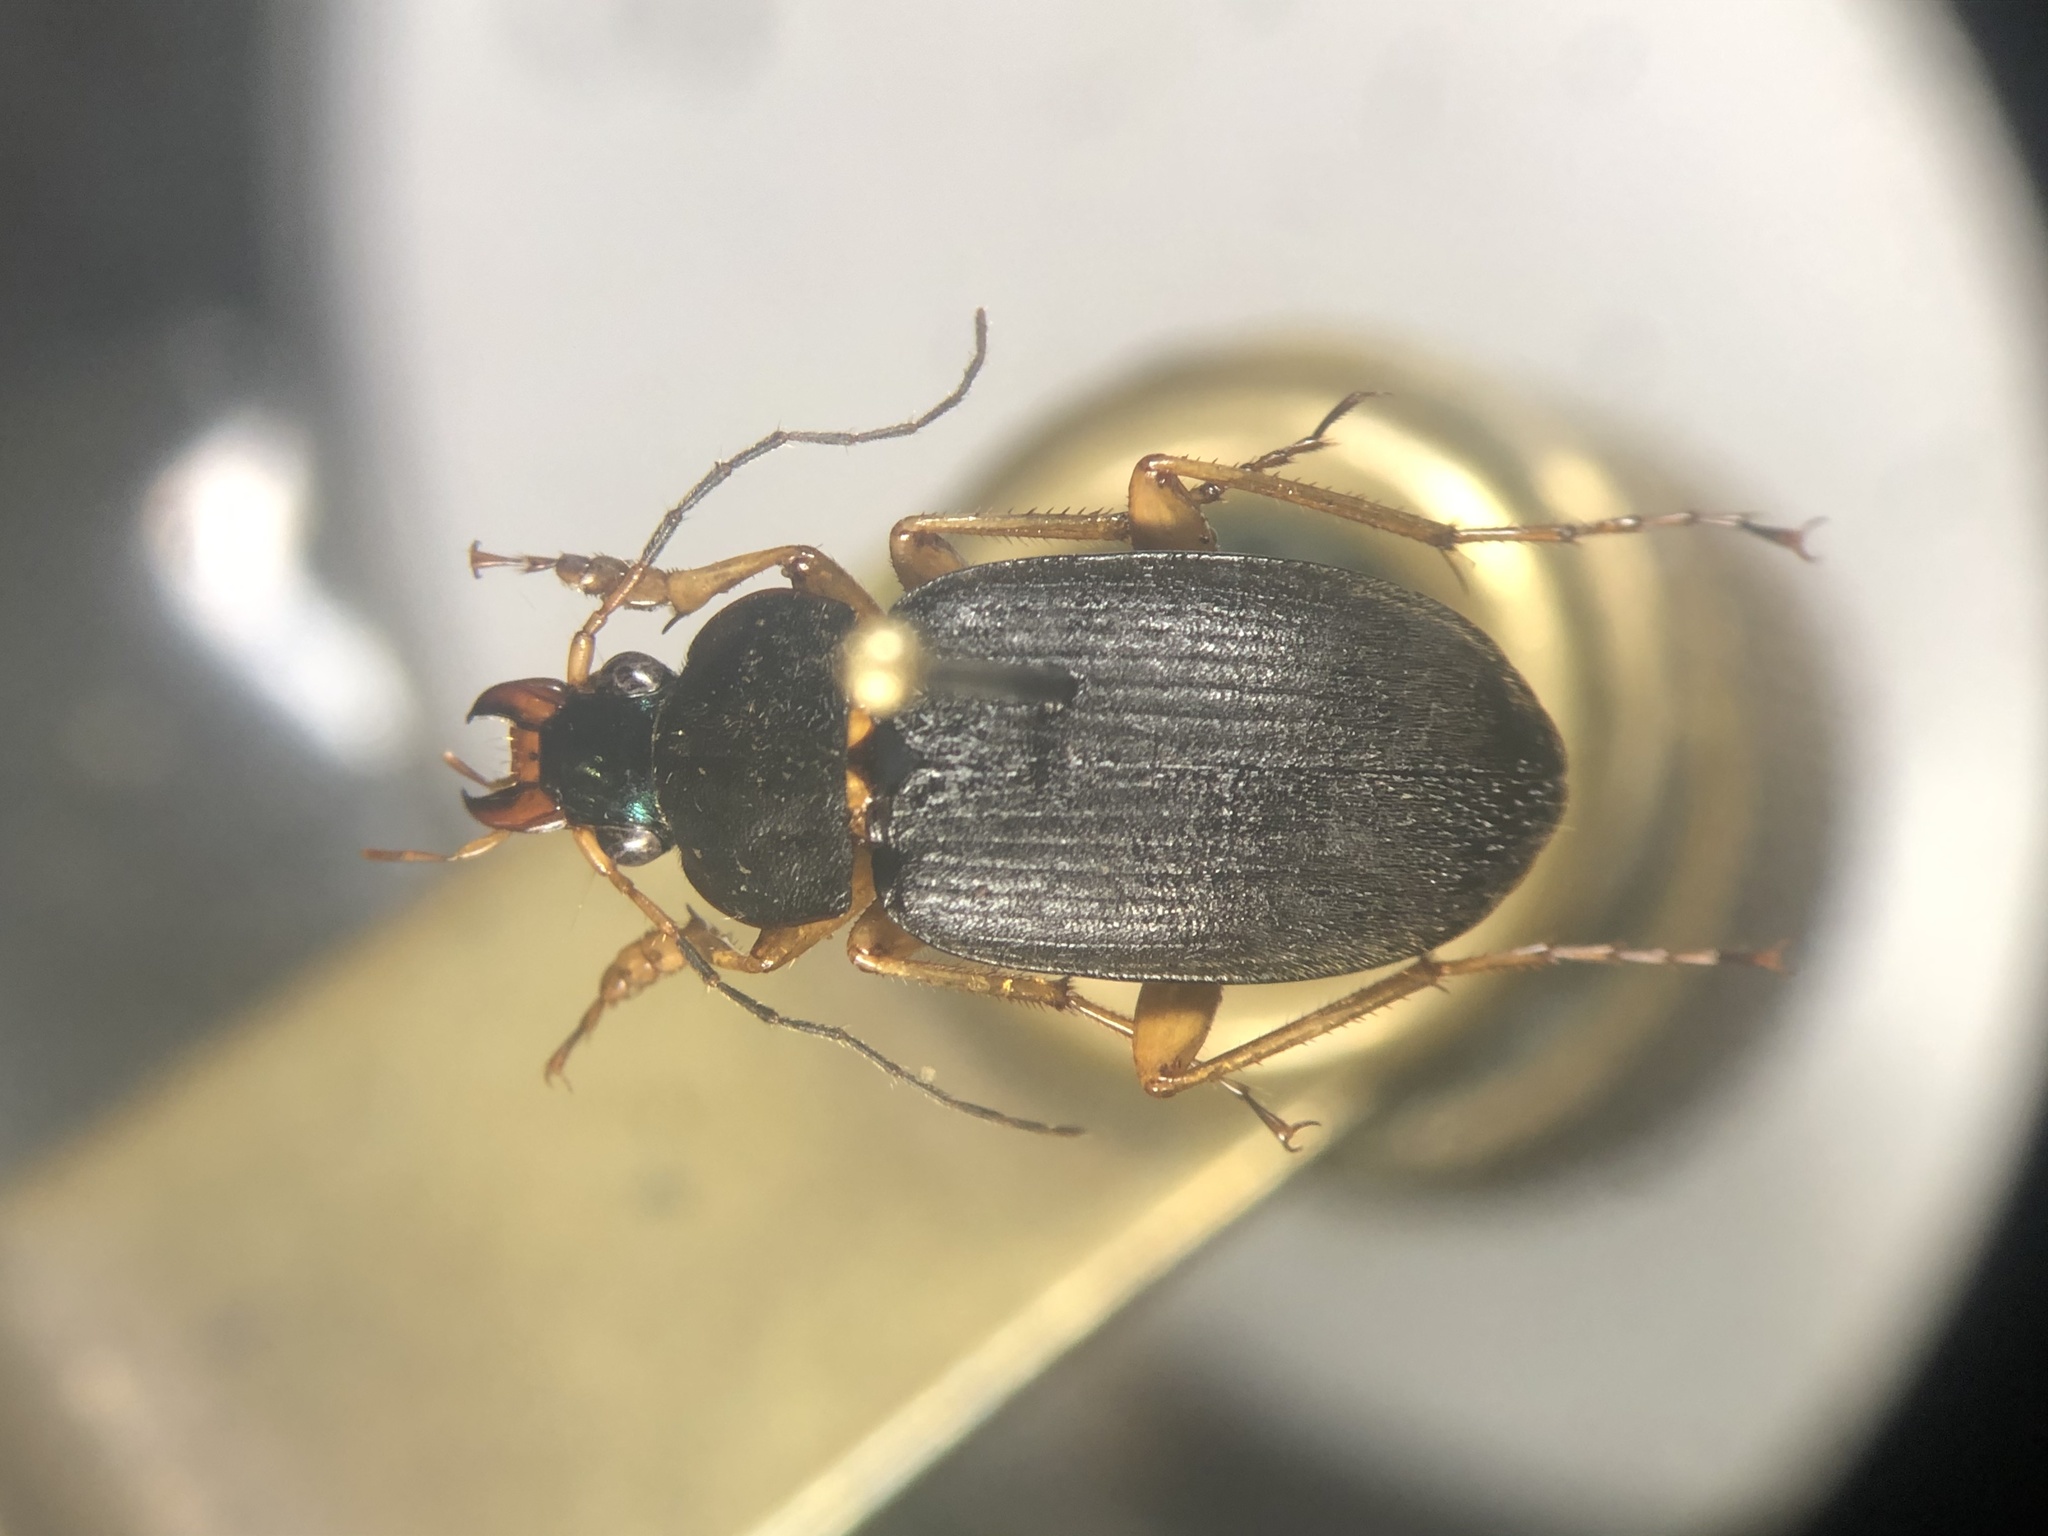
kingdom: Animalia
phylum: Arthropoda
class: Insecta
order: Coleoptera
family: Carabidae
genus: Chlaenius
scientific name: Chlaenius impunctifrons
